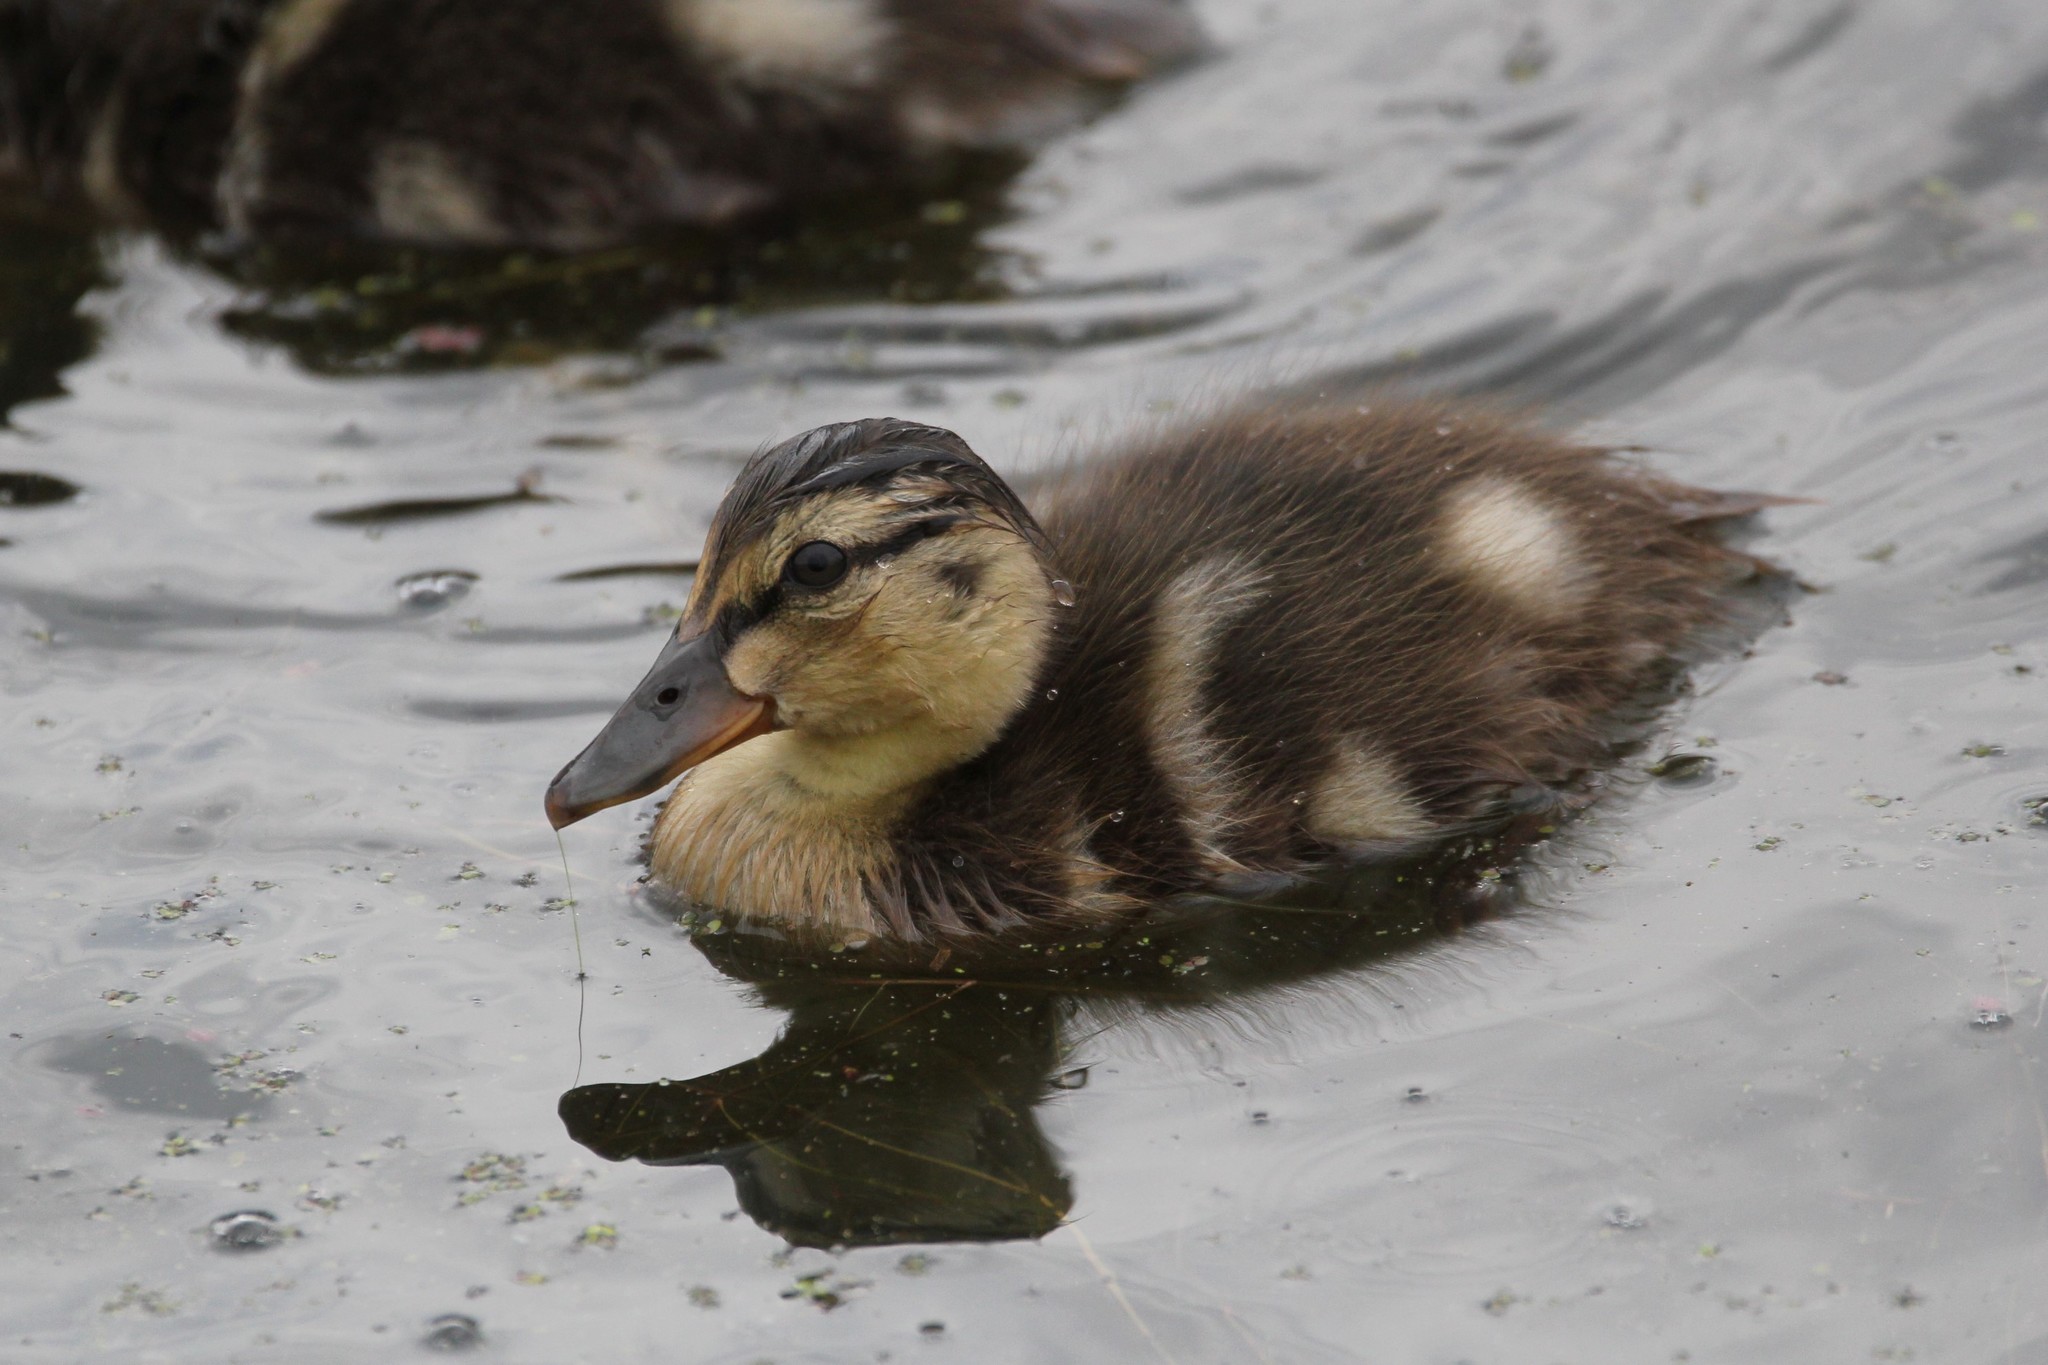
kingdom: Animalia
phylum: Chordata
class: Aves
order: Anseriformes
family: Anatidae
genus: Anas
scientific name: Anas platyrhynchos
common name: Mallard
